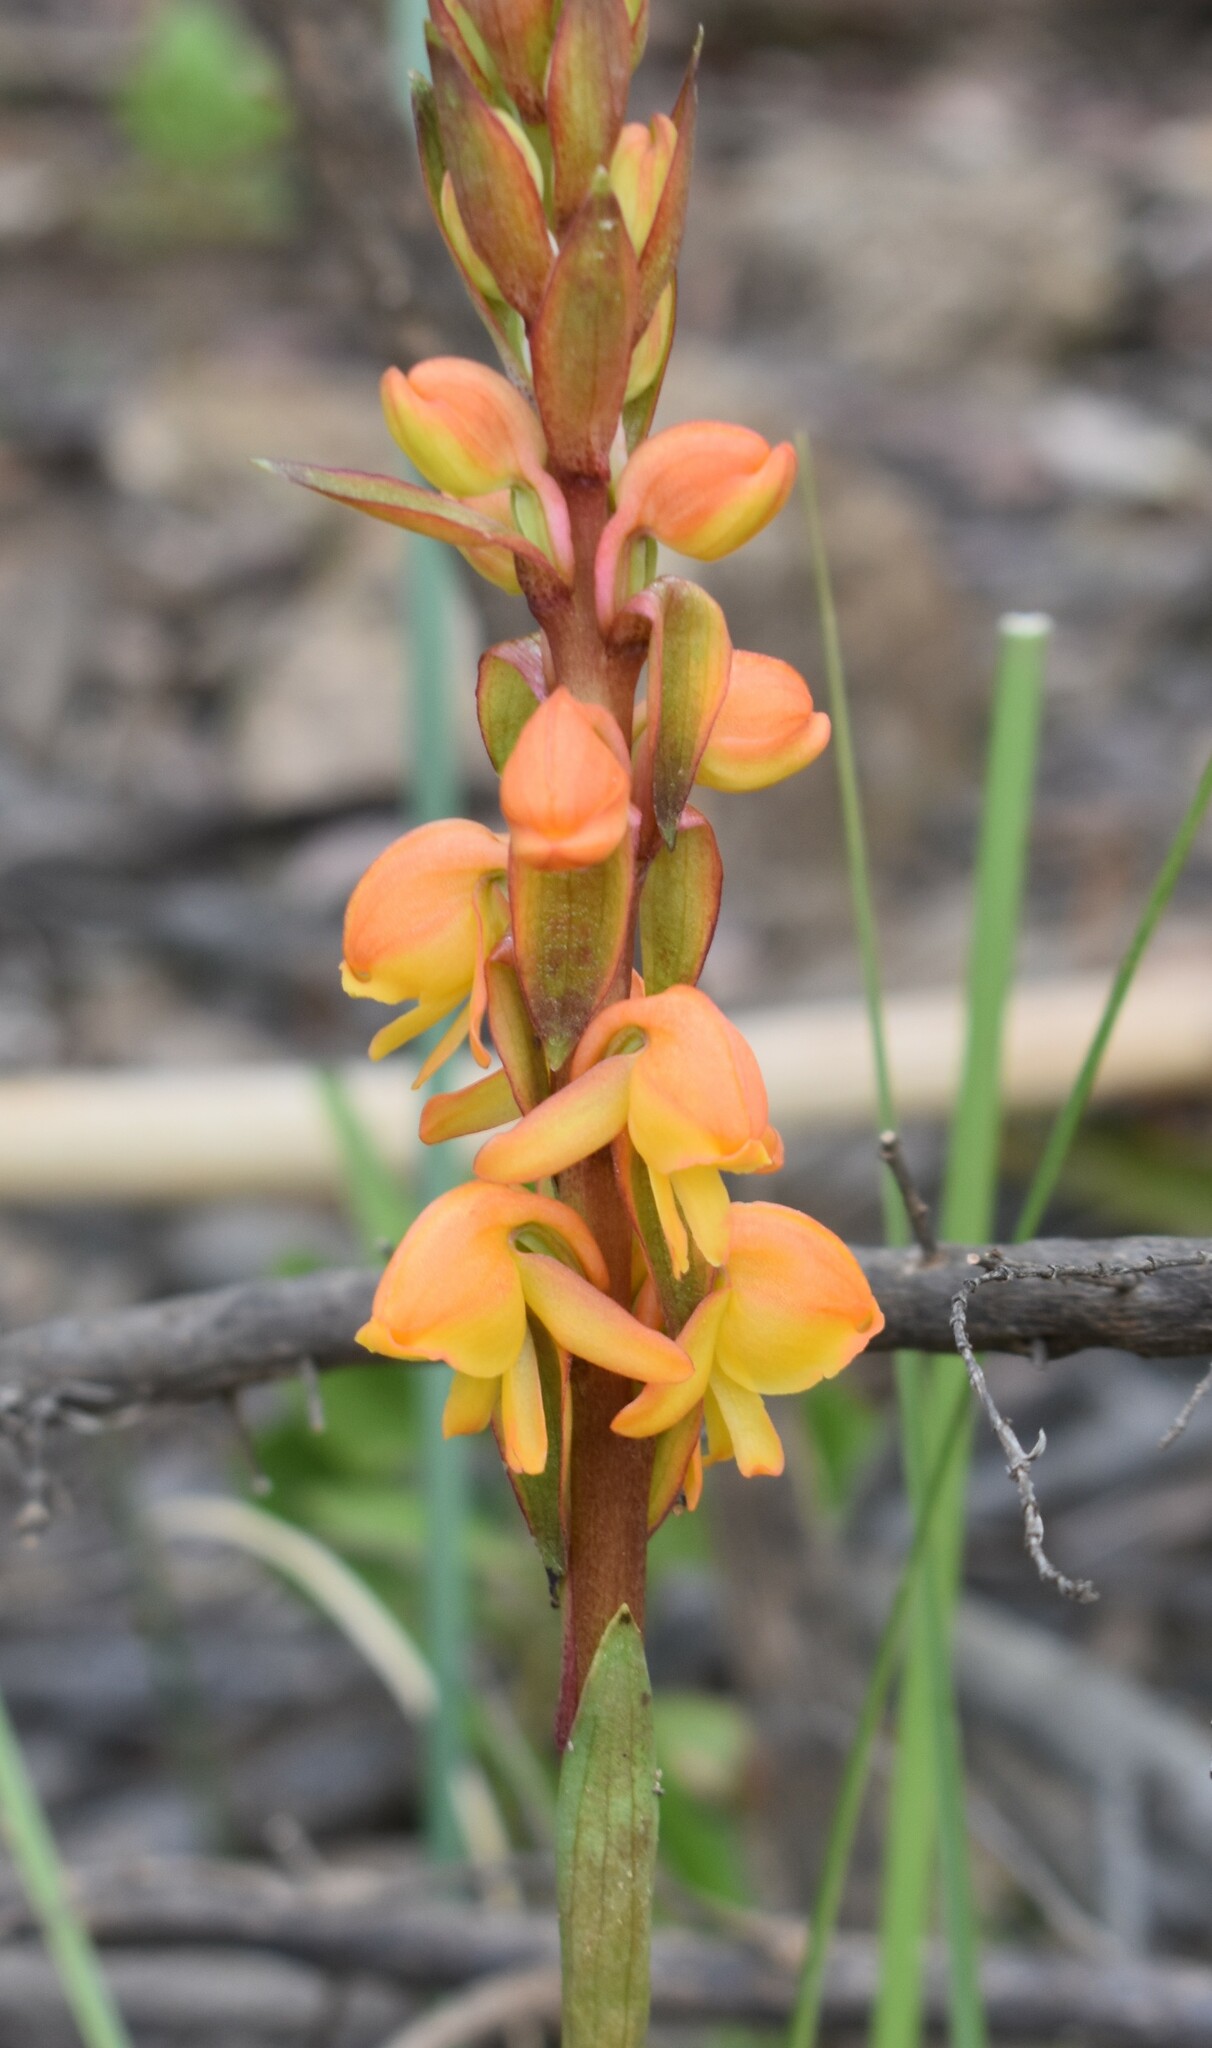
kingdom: Plantae
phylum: Tracheophyta
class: Liliopsida
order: Asparagales
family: Orchidaceae
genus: Satyrium
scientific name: Satyrium coriifolium
